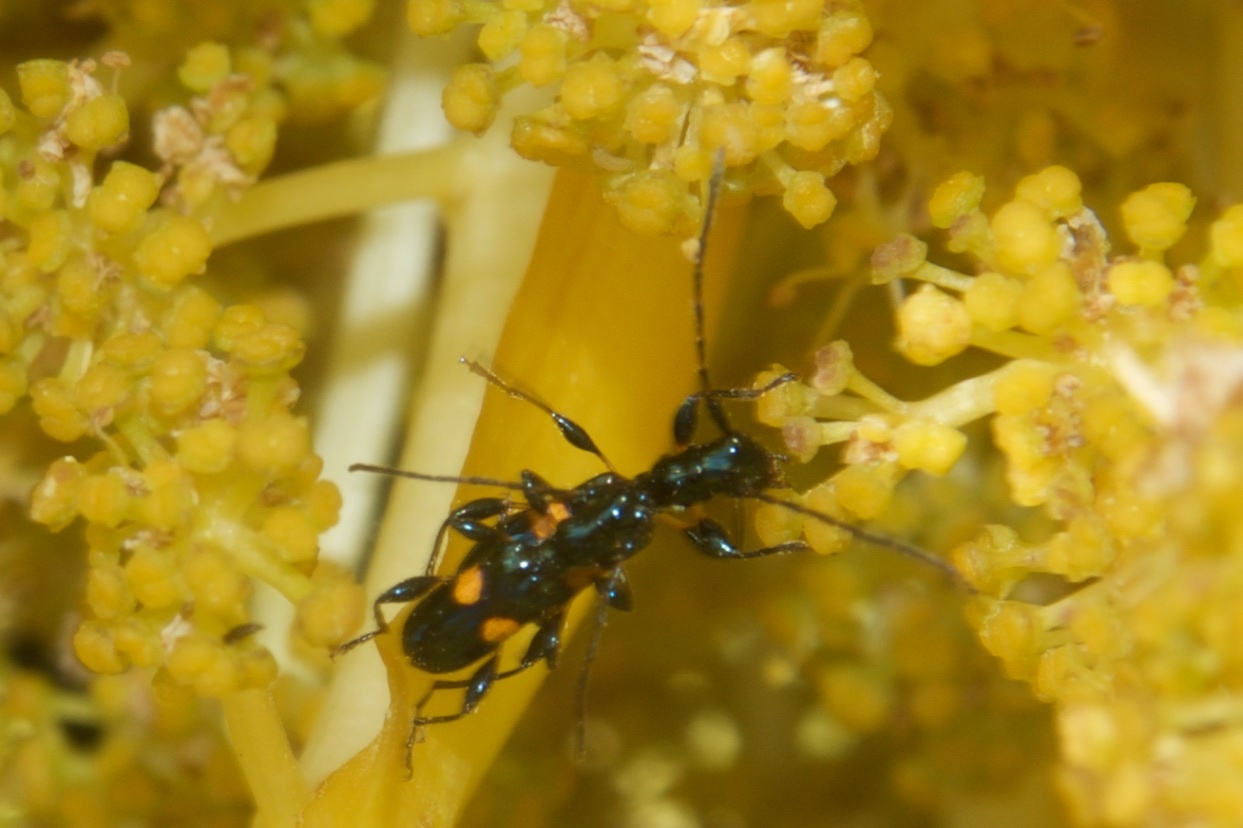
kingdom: Animalia
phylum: Arthropoda
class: Insecta
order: Coleoptera
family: Cerambycidae
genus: Zorion
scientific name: Zorion guttigerum
